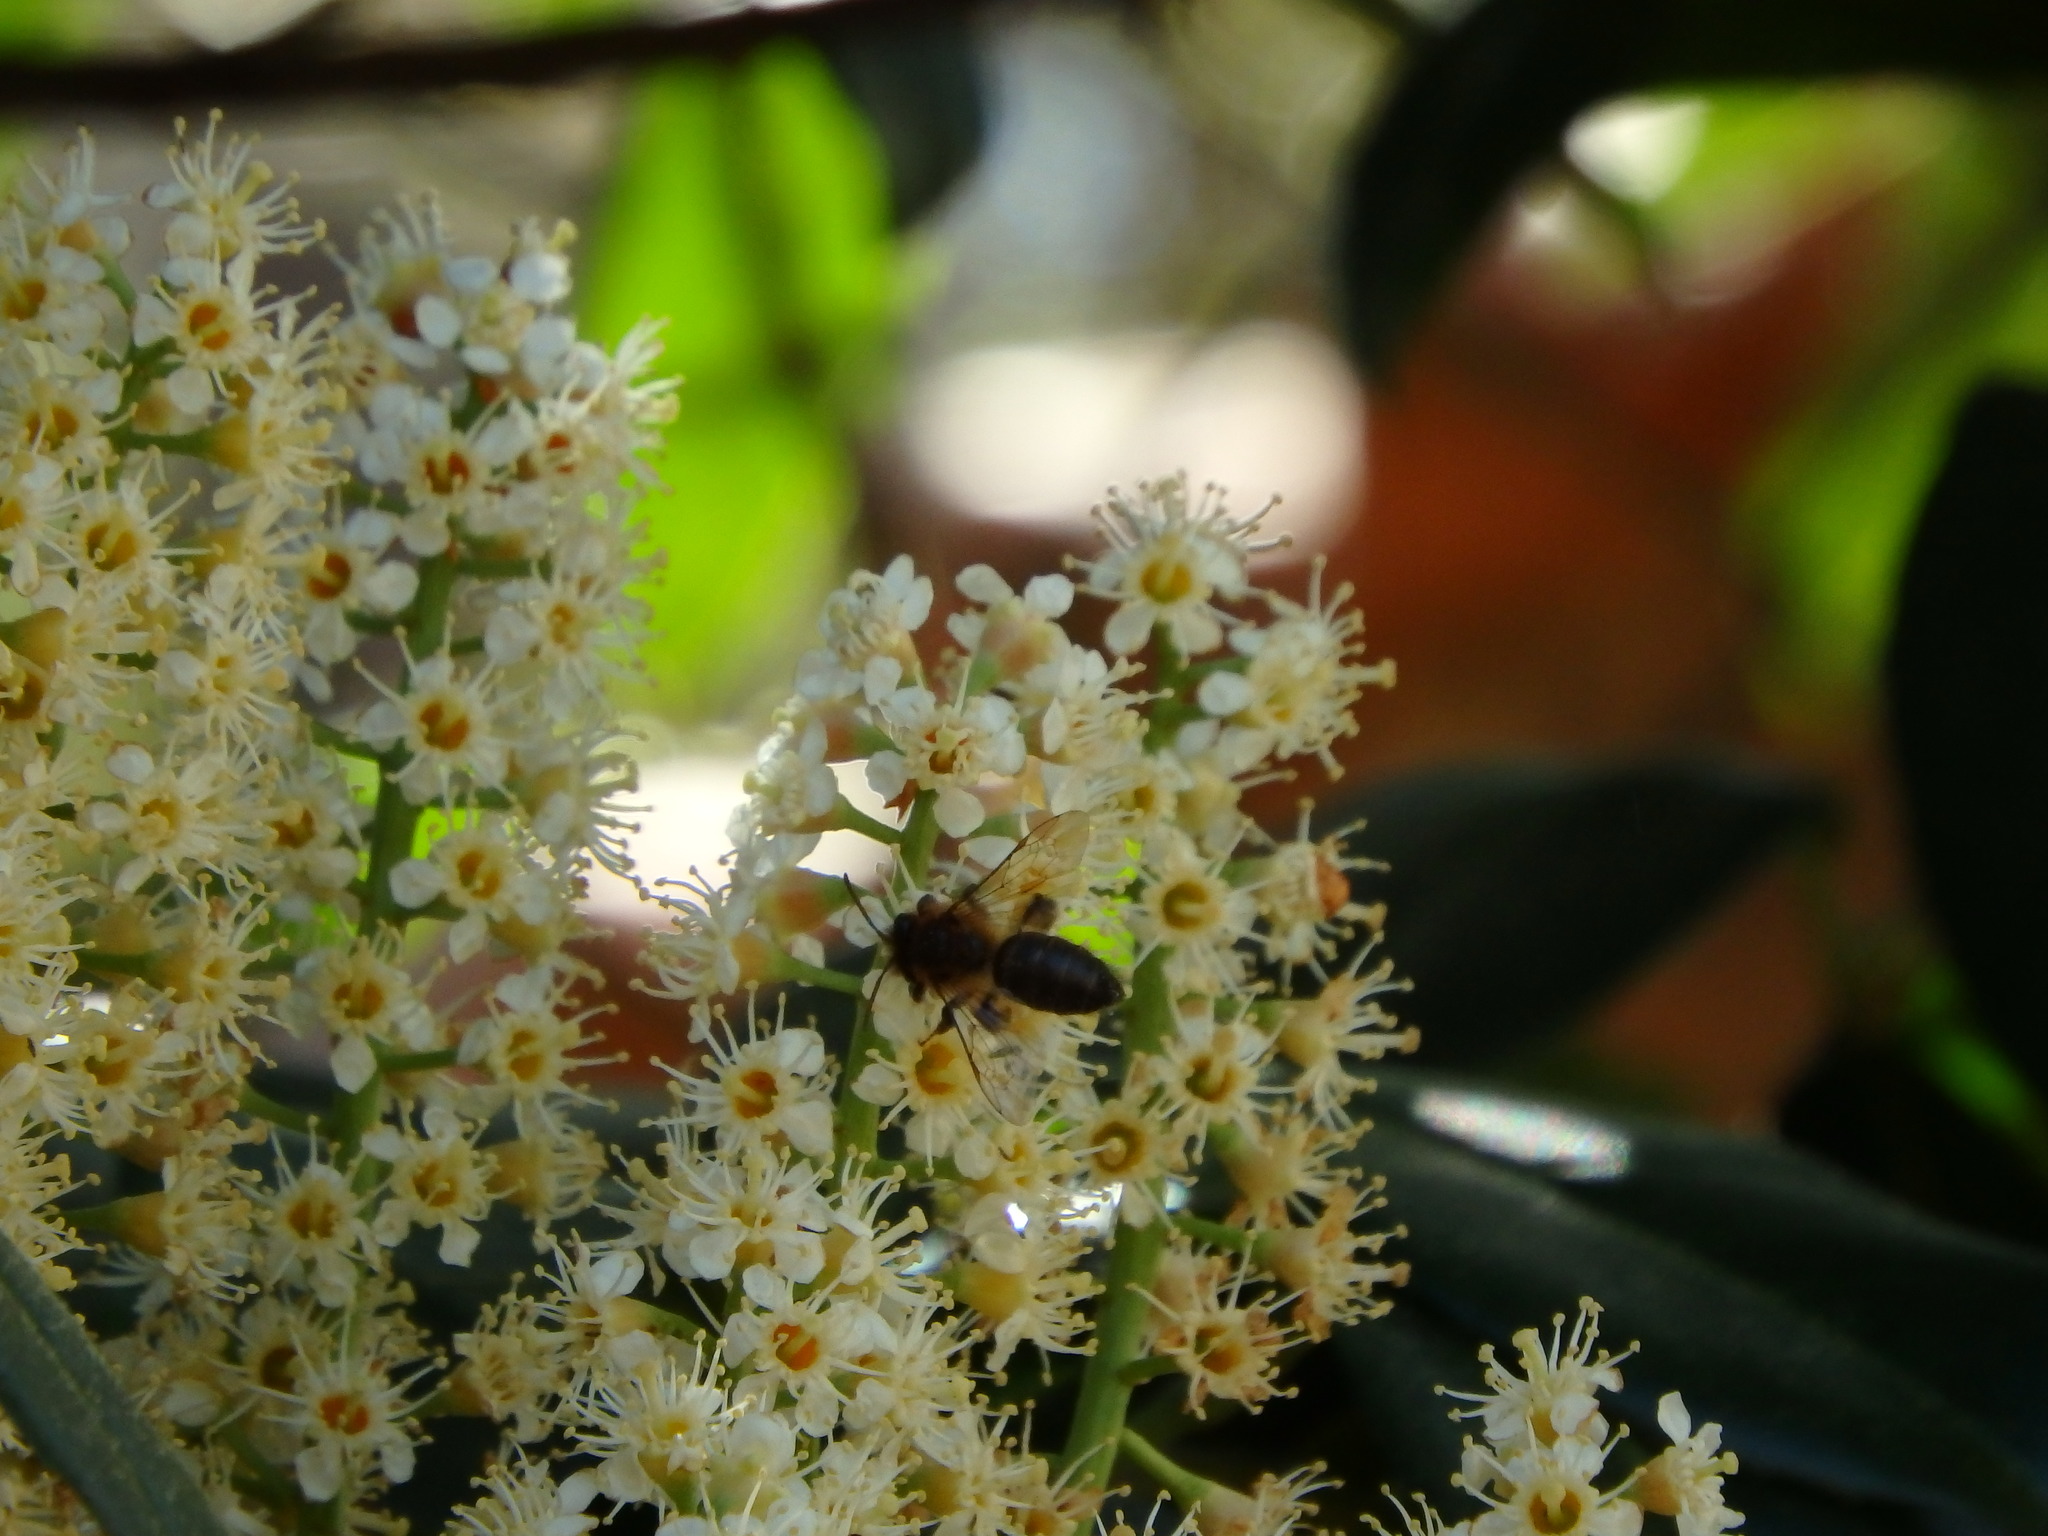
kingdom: Animalia
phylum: Arthropoda
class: Insecta
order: Hymenoptera
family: Apidae
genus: Apis
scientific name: Apis mellifera
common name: Honey bee
